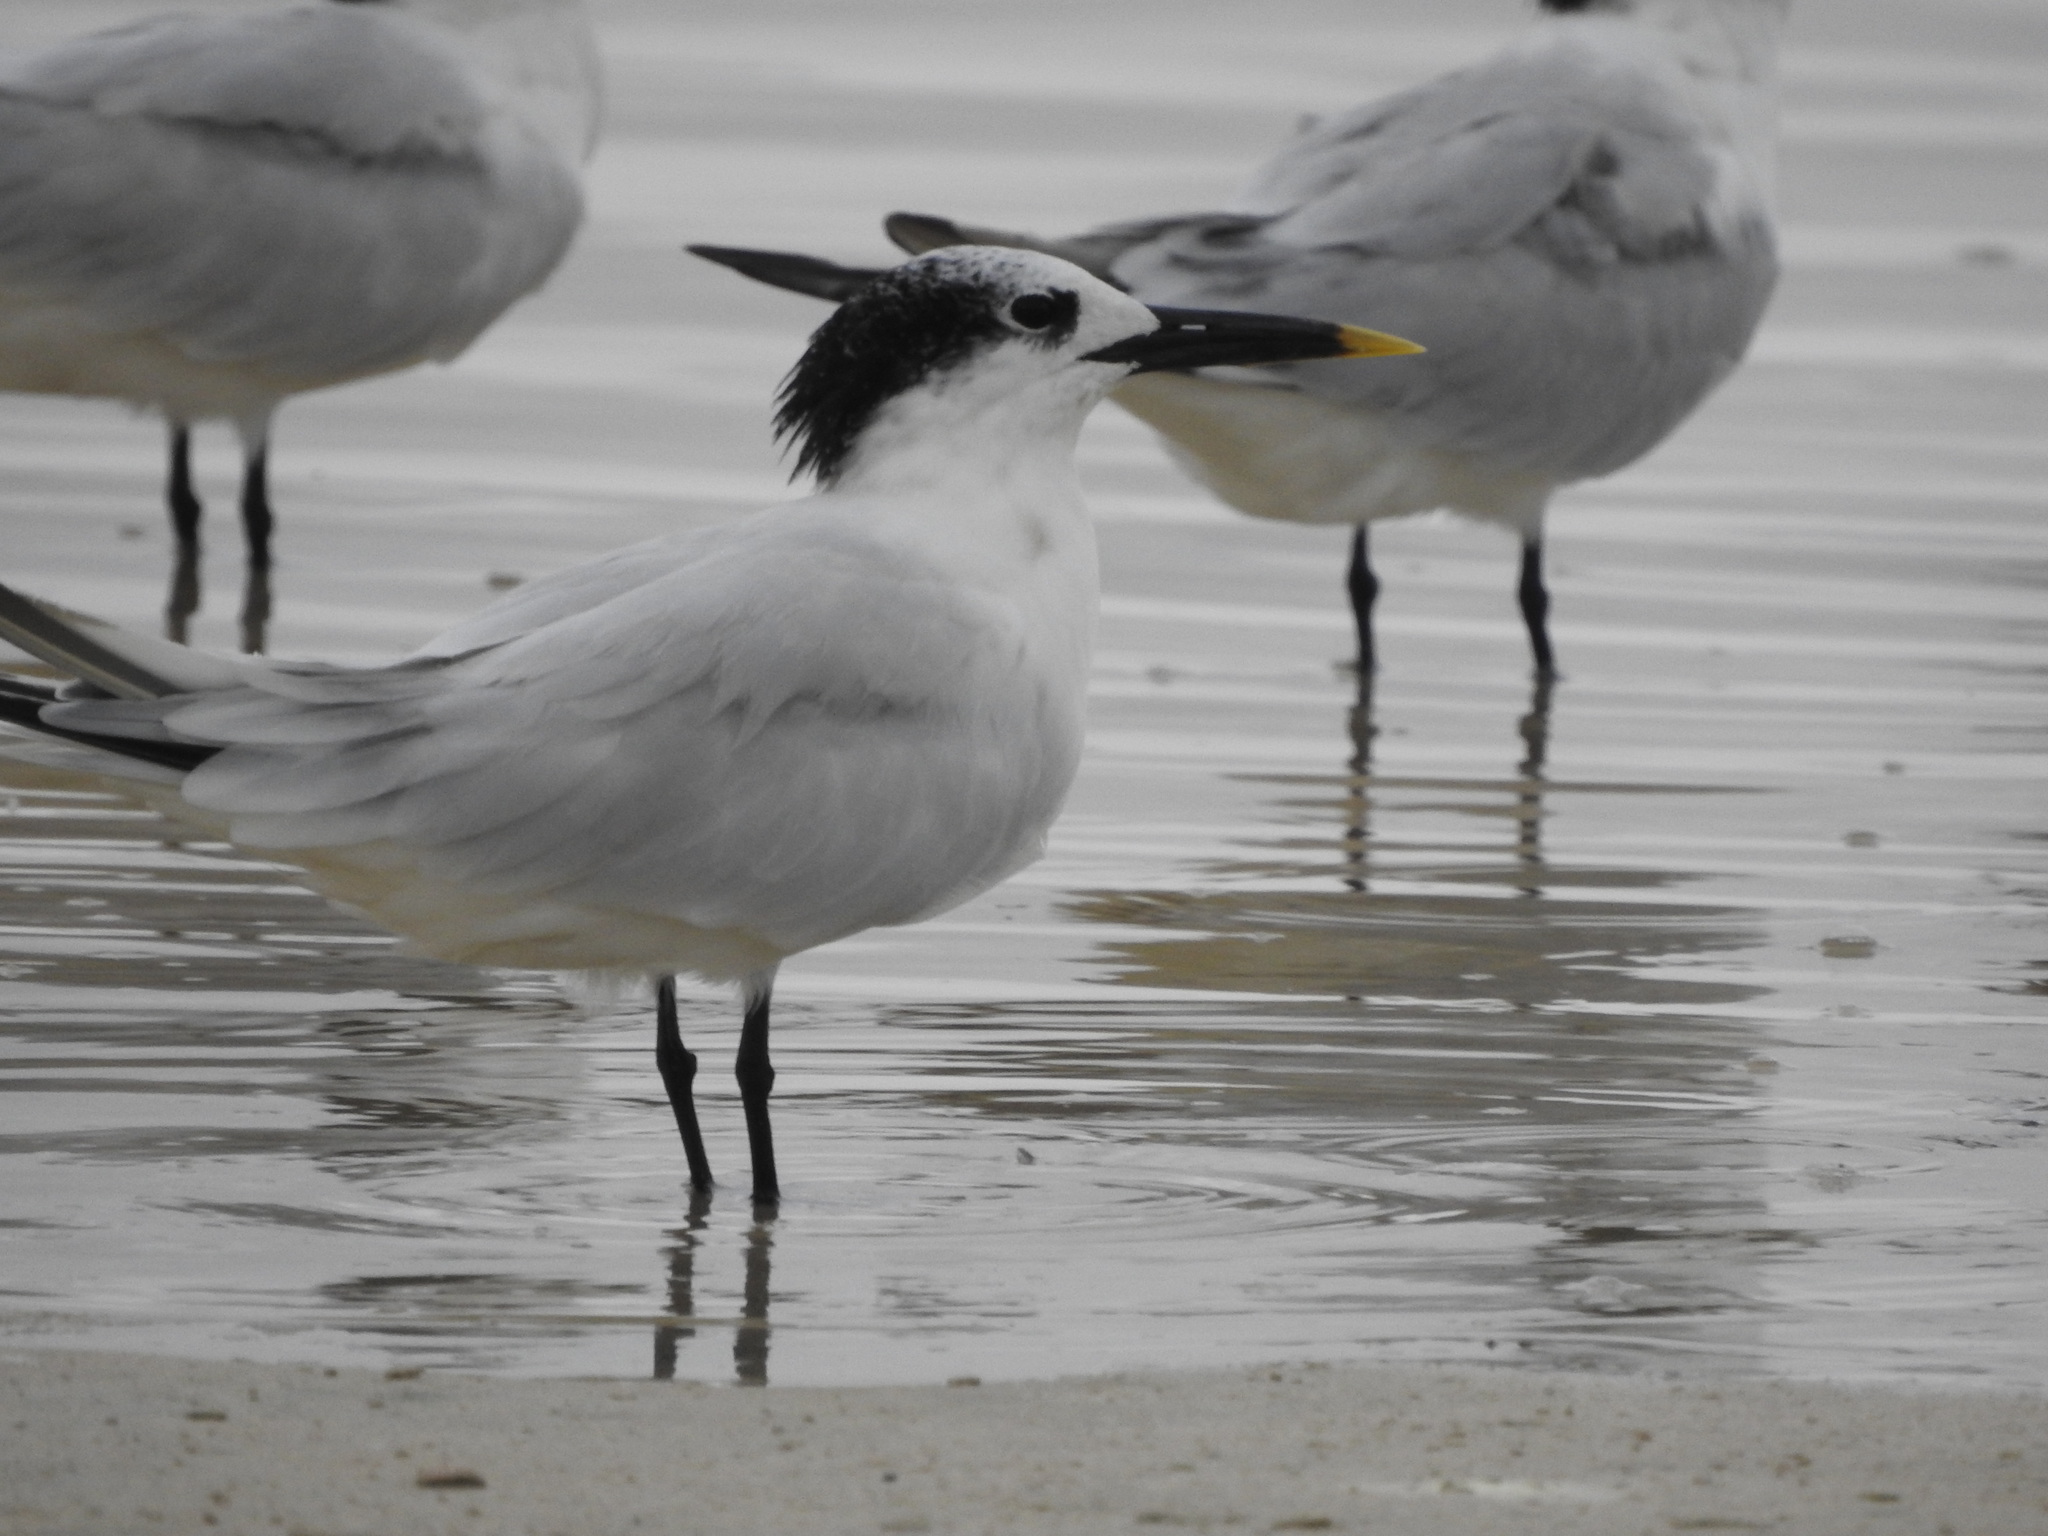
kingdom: Animalia
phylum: Chordata
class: Aves
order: Charadriiformes
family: Laridae
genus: Thalasseus
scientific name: Thalasseus sandvicensis
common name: Sandwich tern
